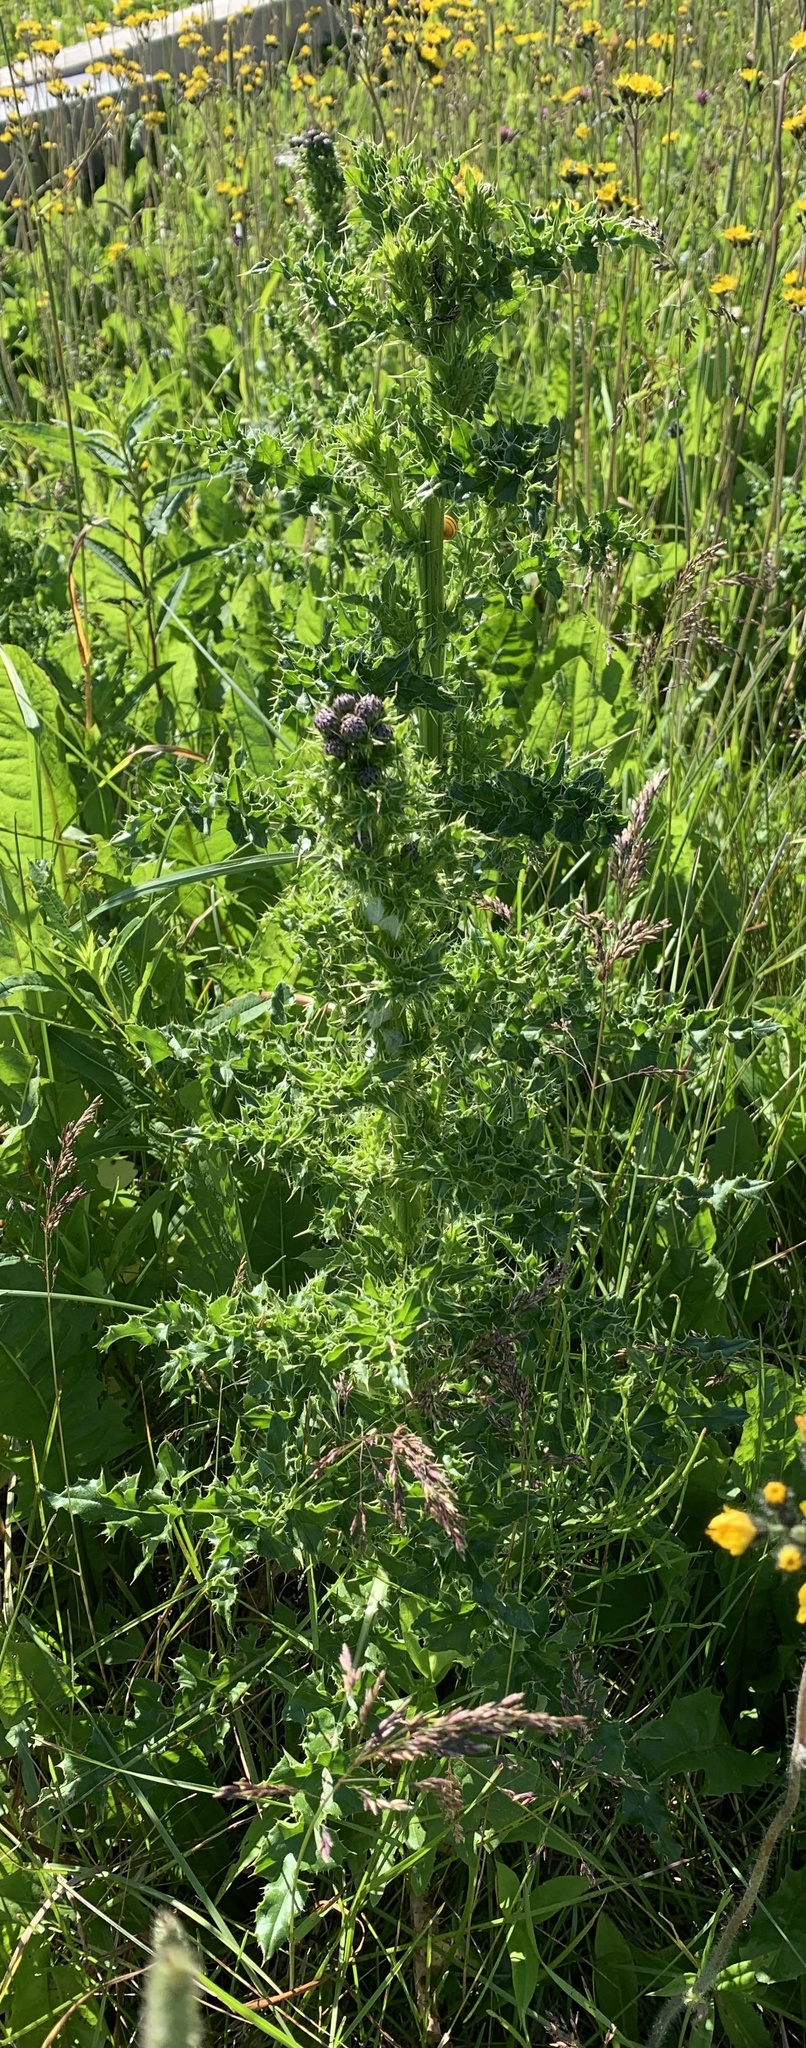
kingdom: Plantae
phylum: Tracheophyta
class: Magnoliopsida
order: Asterales
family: Asteraceae
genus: Cirsium
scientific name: Cirsium arvense
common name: Creeping thistle
